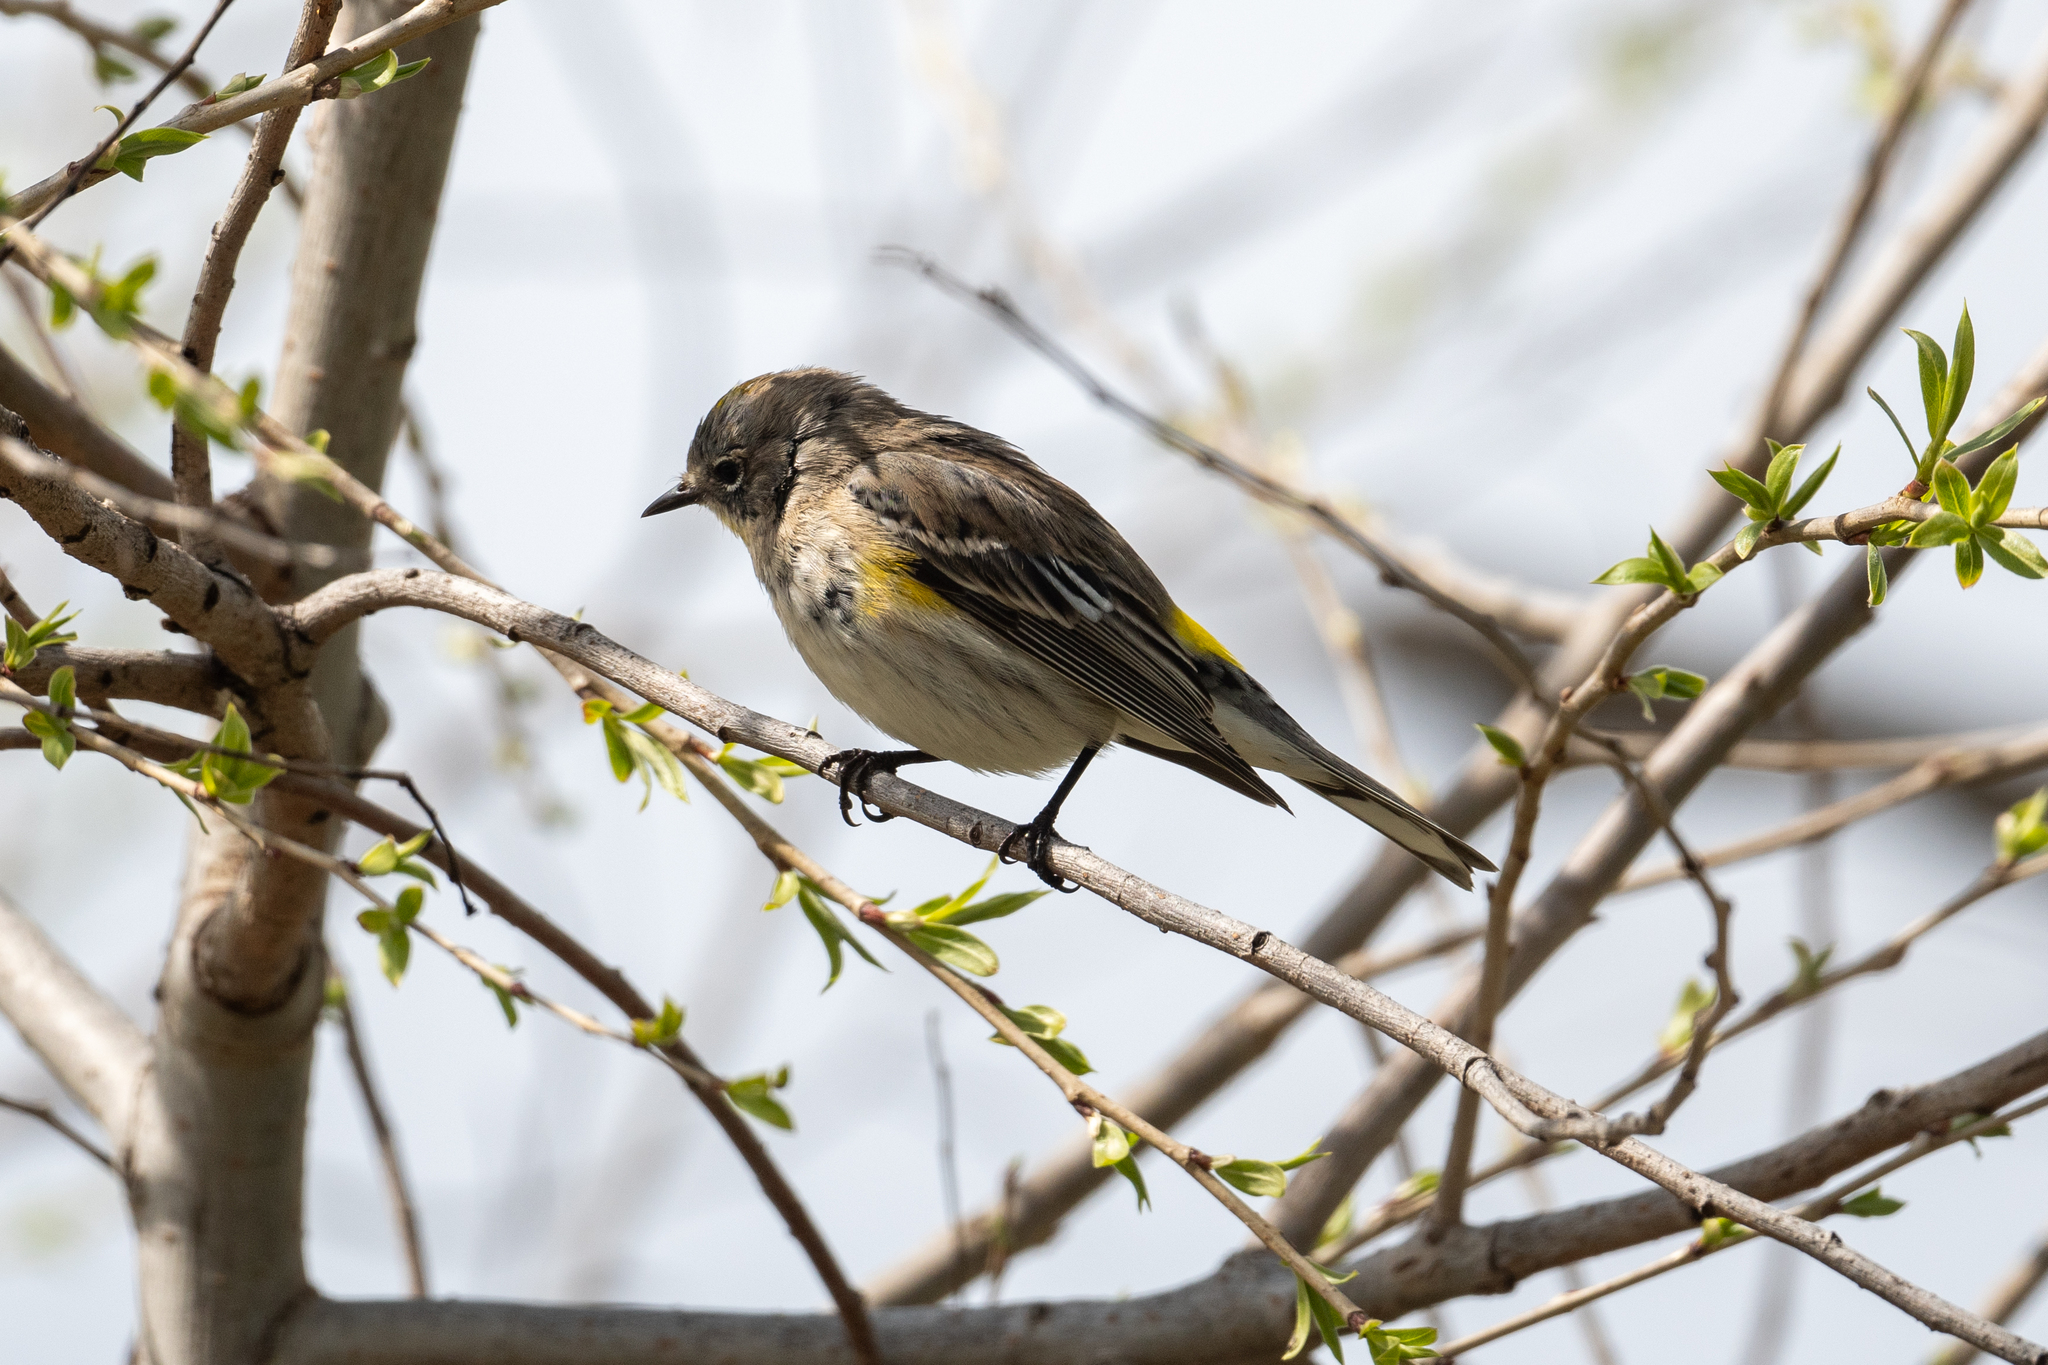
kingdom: Animalia
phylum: Chordata
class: Aves
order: Passeriformes
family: Parulidae
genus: Setophaga
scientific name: Setophaga coronata
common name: Myrtle warbler
